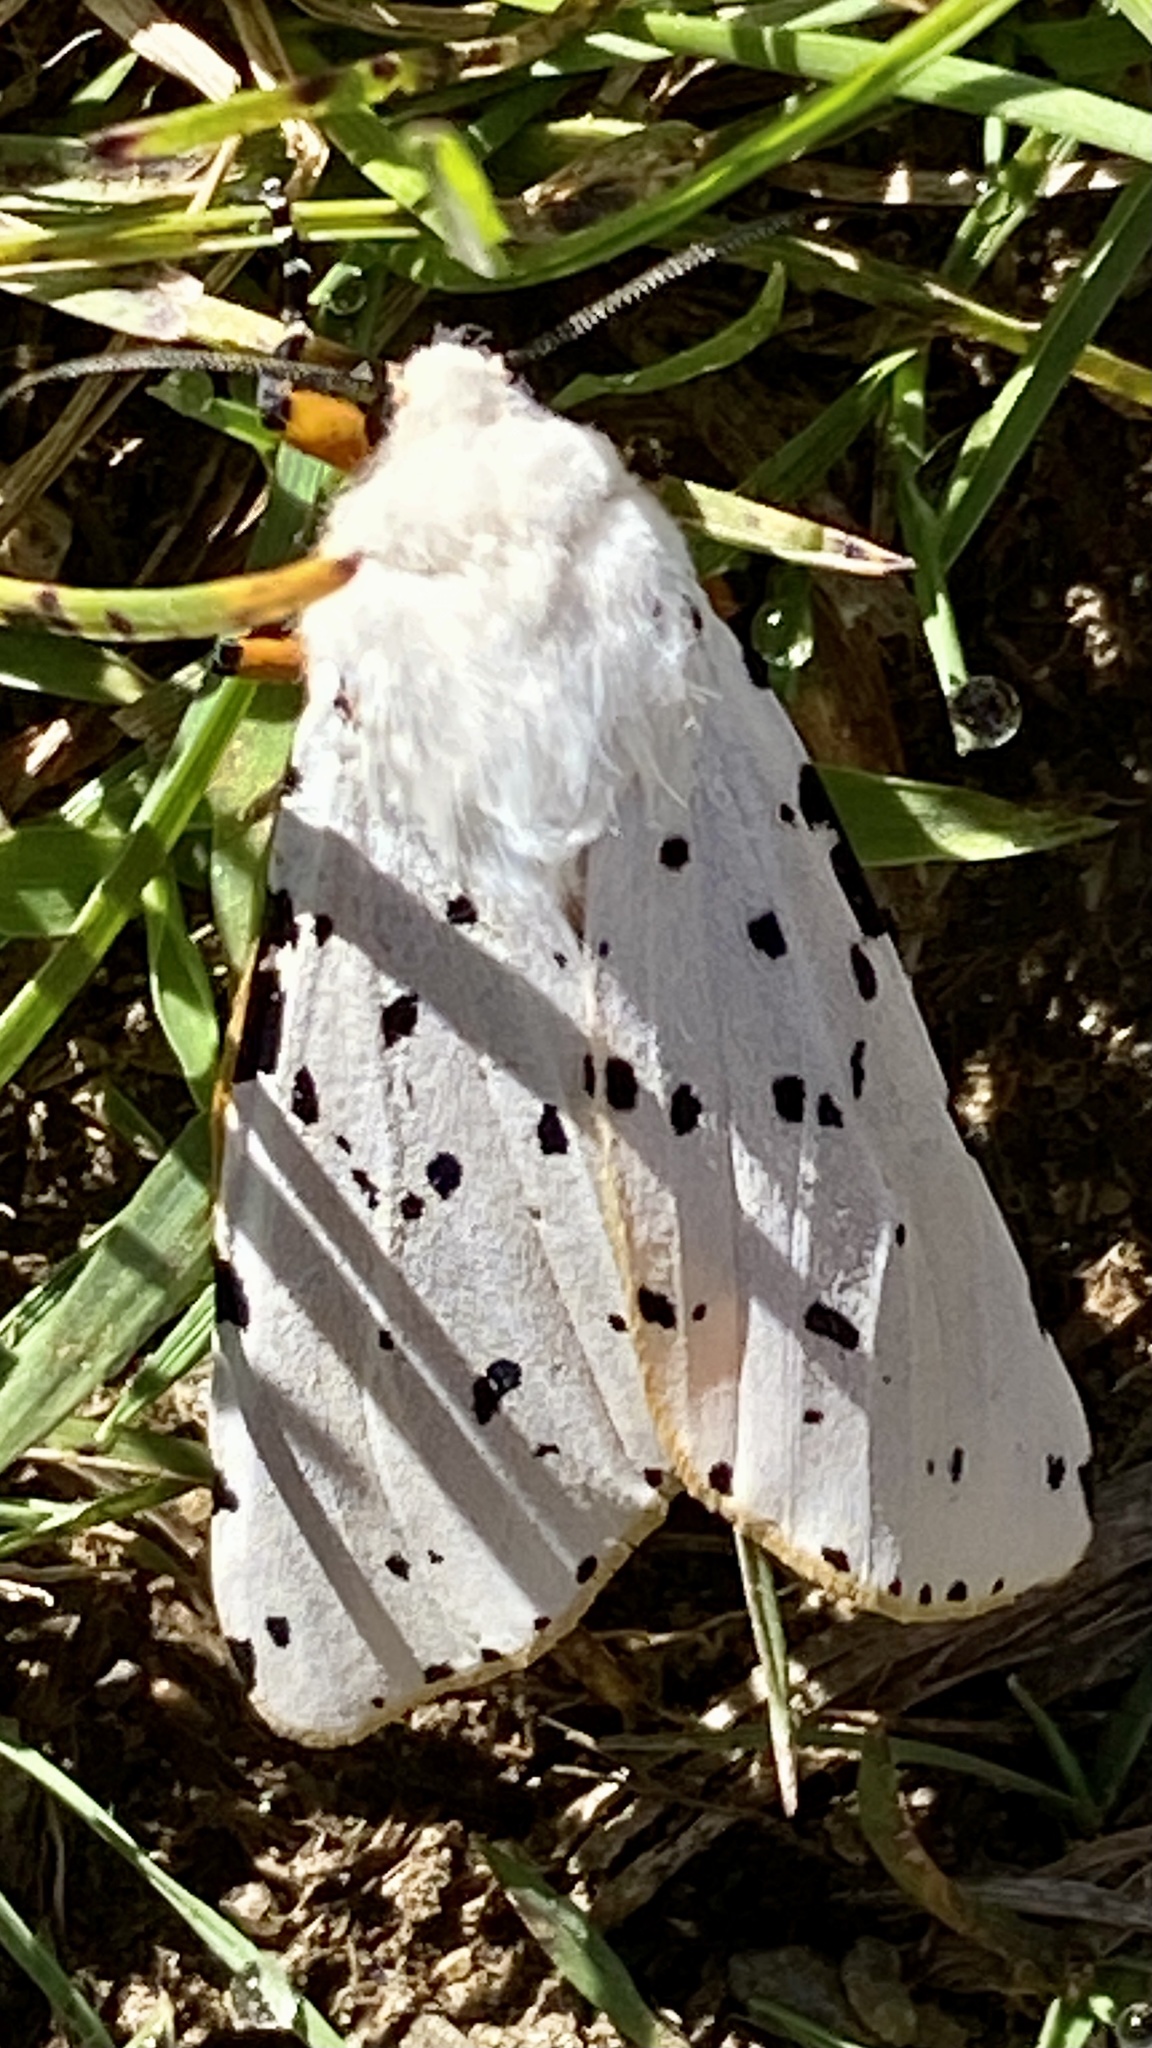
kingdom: Animalia
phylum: Arthropoda
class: Insecta
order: Lepidoptera
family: Erebidae
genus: Estigmene
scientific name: Estigmene acrea
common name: Salt marsh moth
